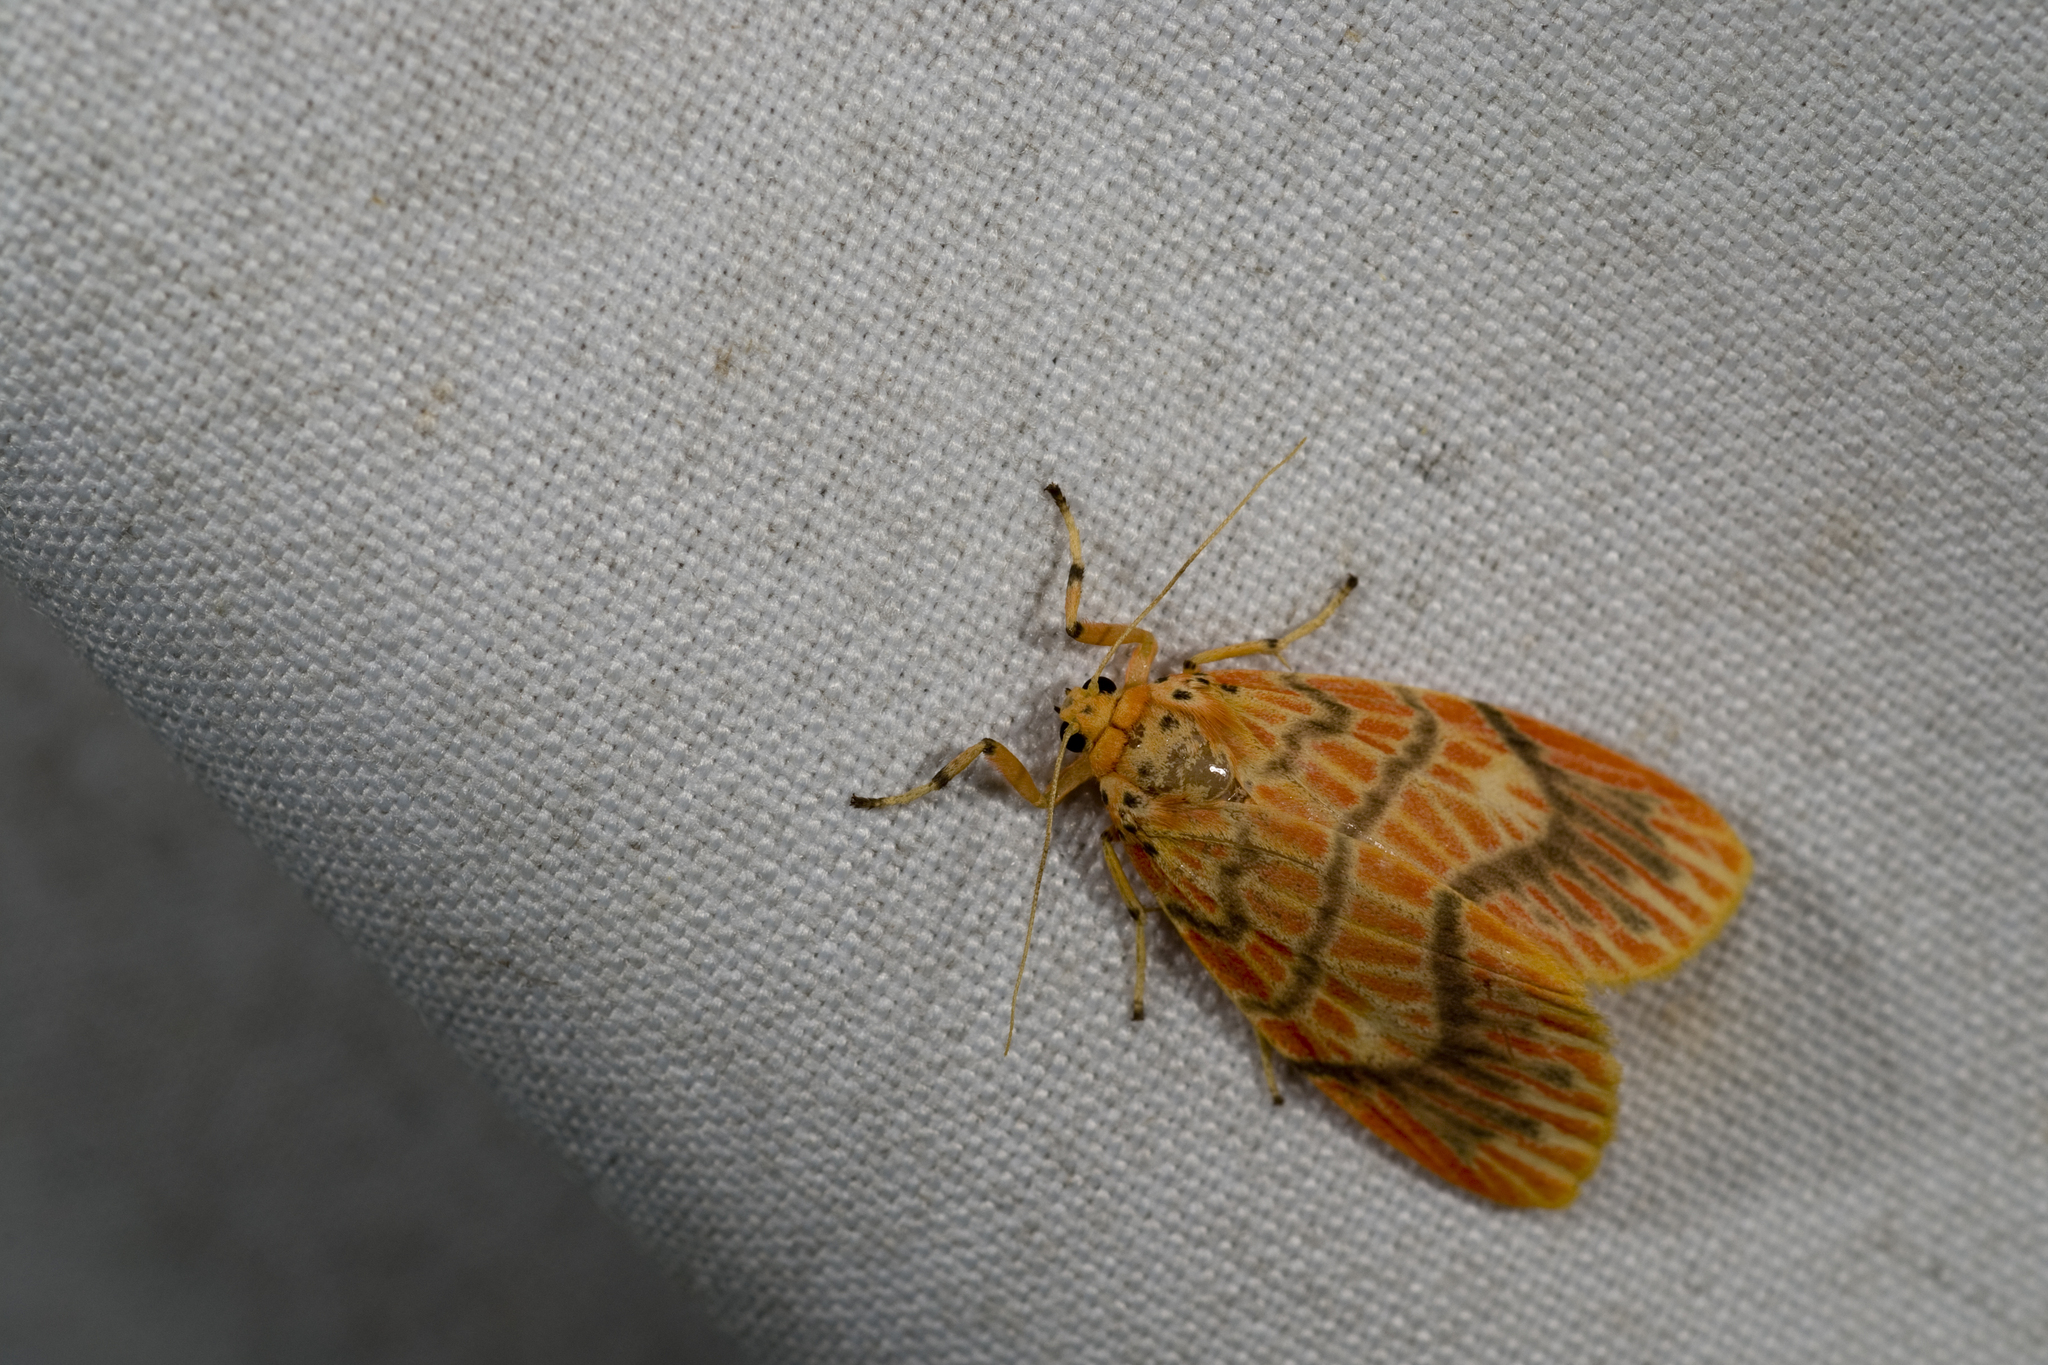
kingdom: Animalia
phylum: Arthropoda
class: Insecta
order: Lepidoptera
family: Erebidae
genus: Barsine
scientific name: Barsine sauteri
